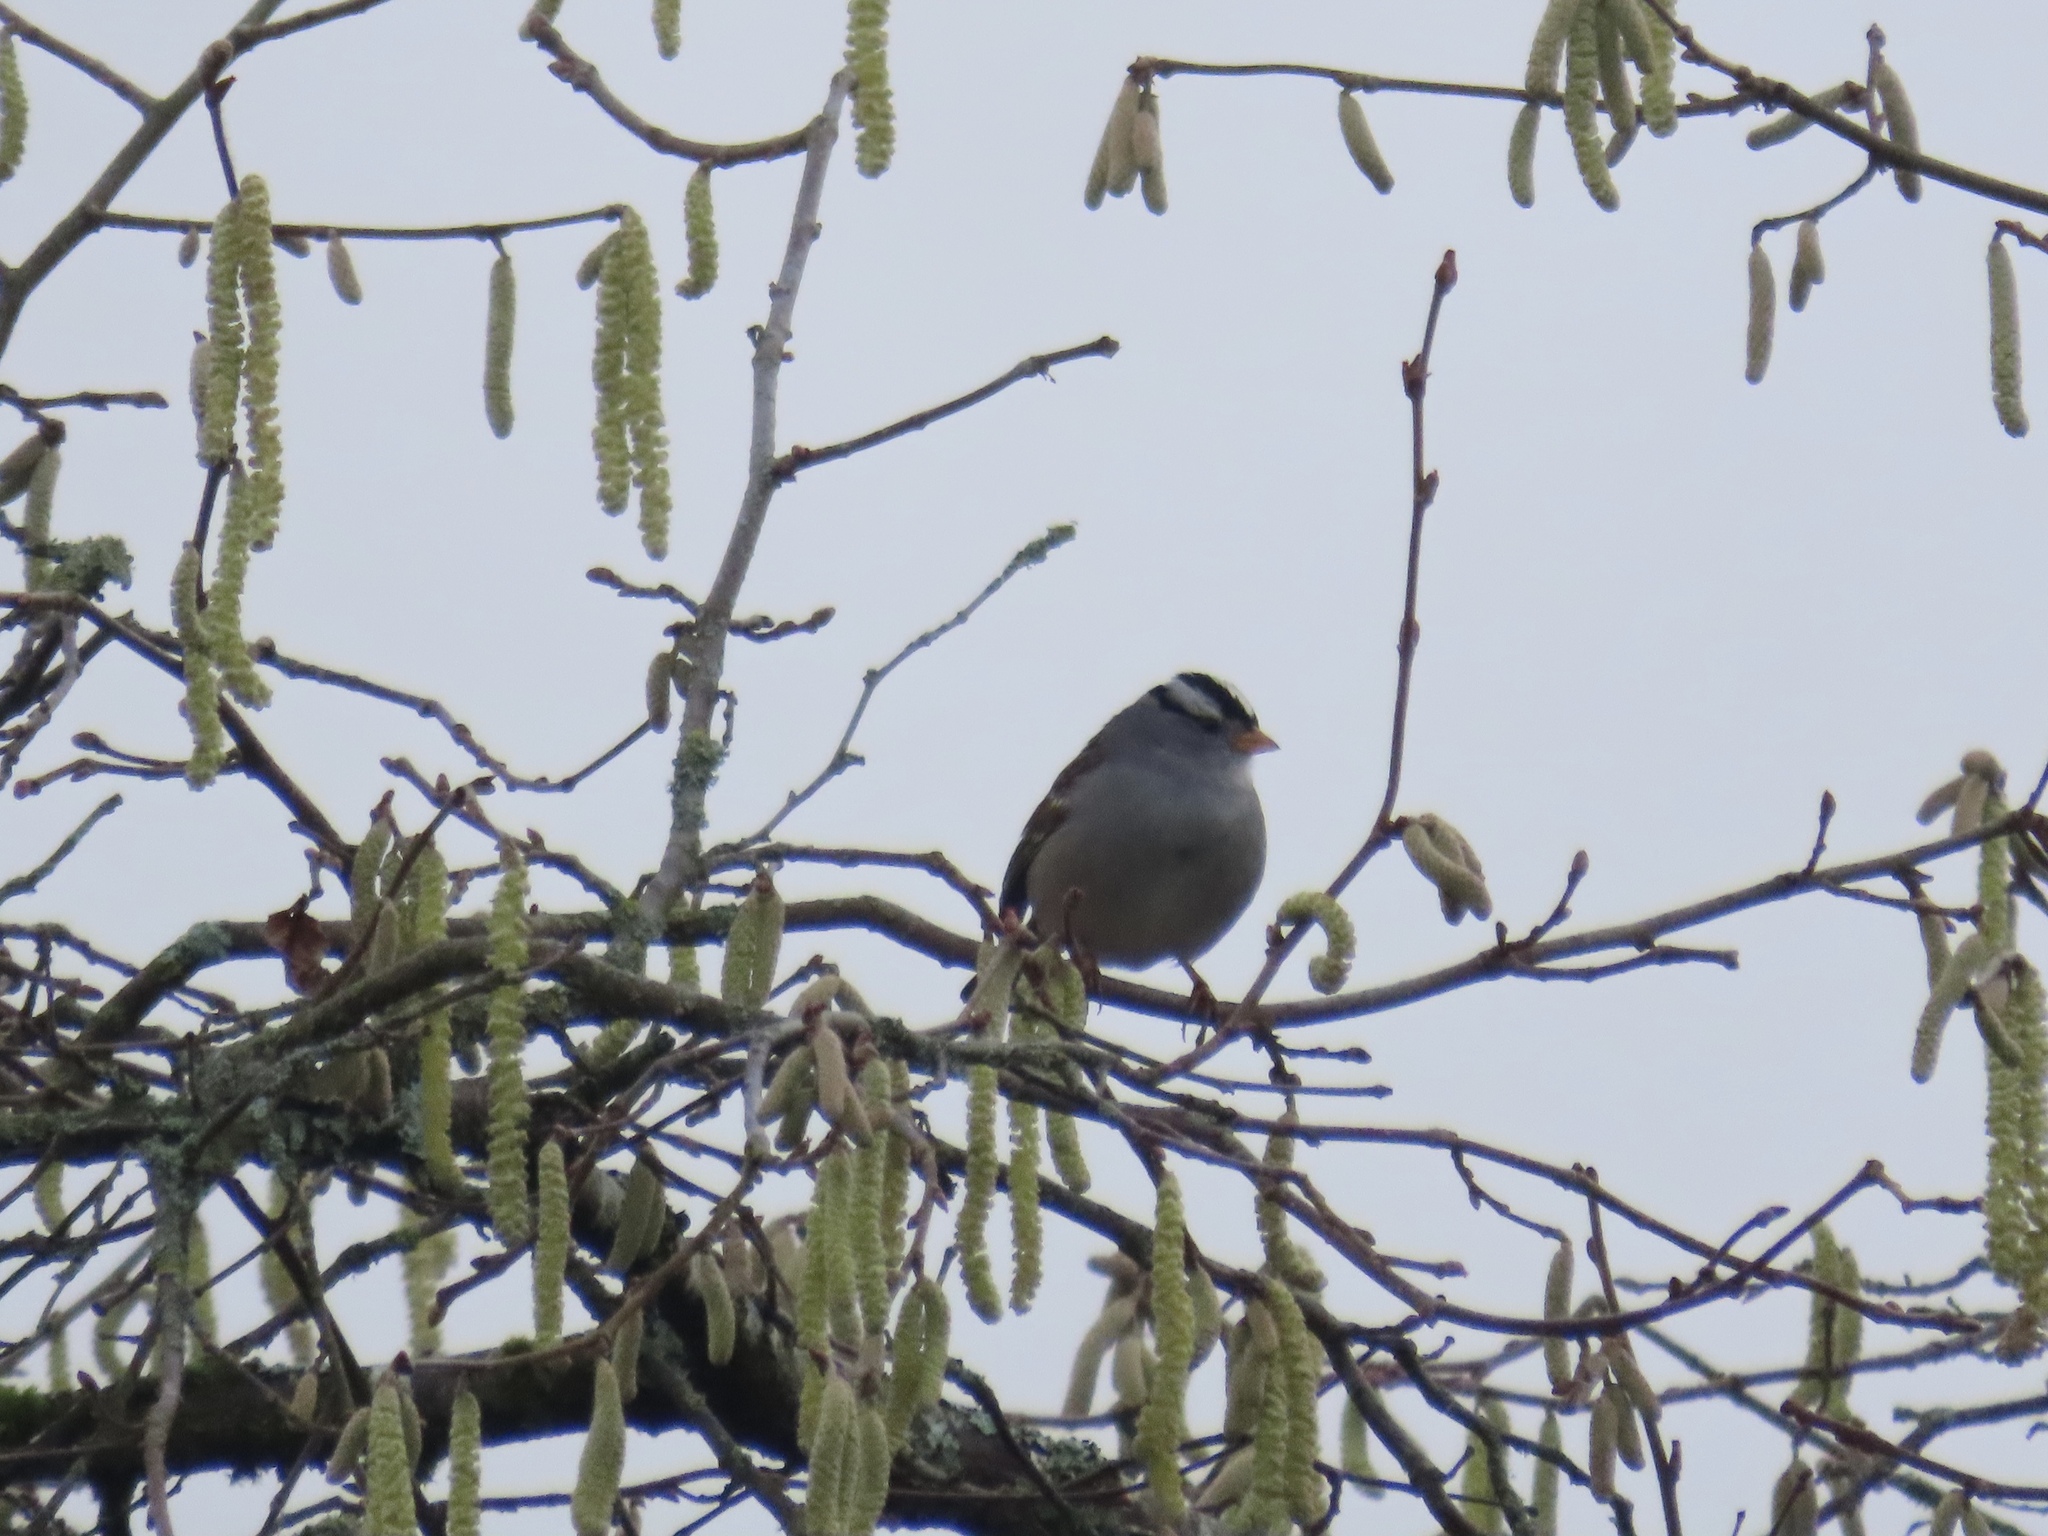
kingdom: Animalia
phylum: Chordata
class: Aves
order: Passeriformes
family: Passerellidae
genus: Zonotrichia
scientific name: Zonotrichia leucophrys
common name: White-crowned sparrow
